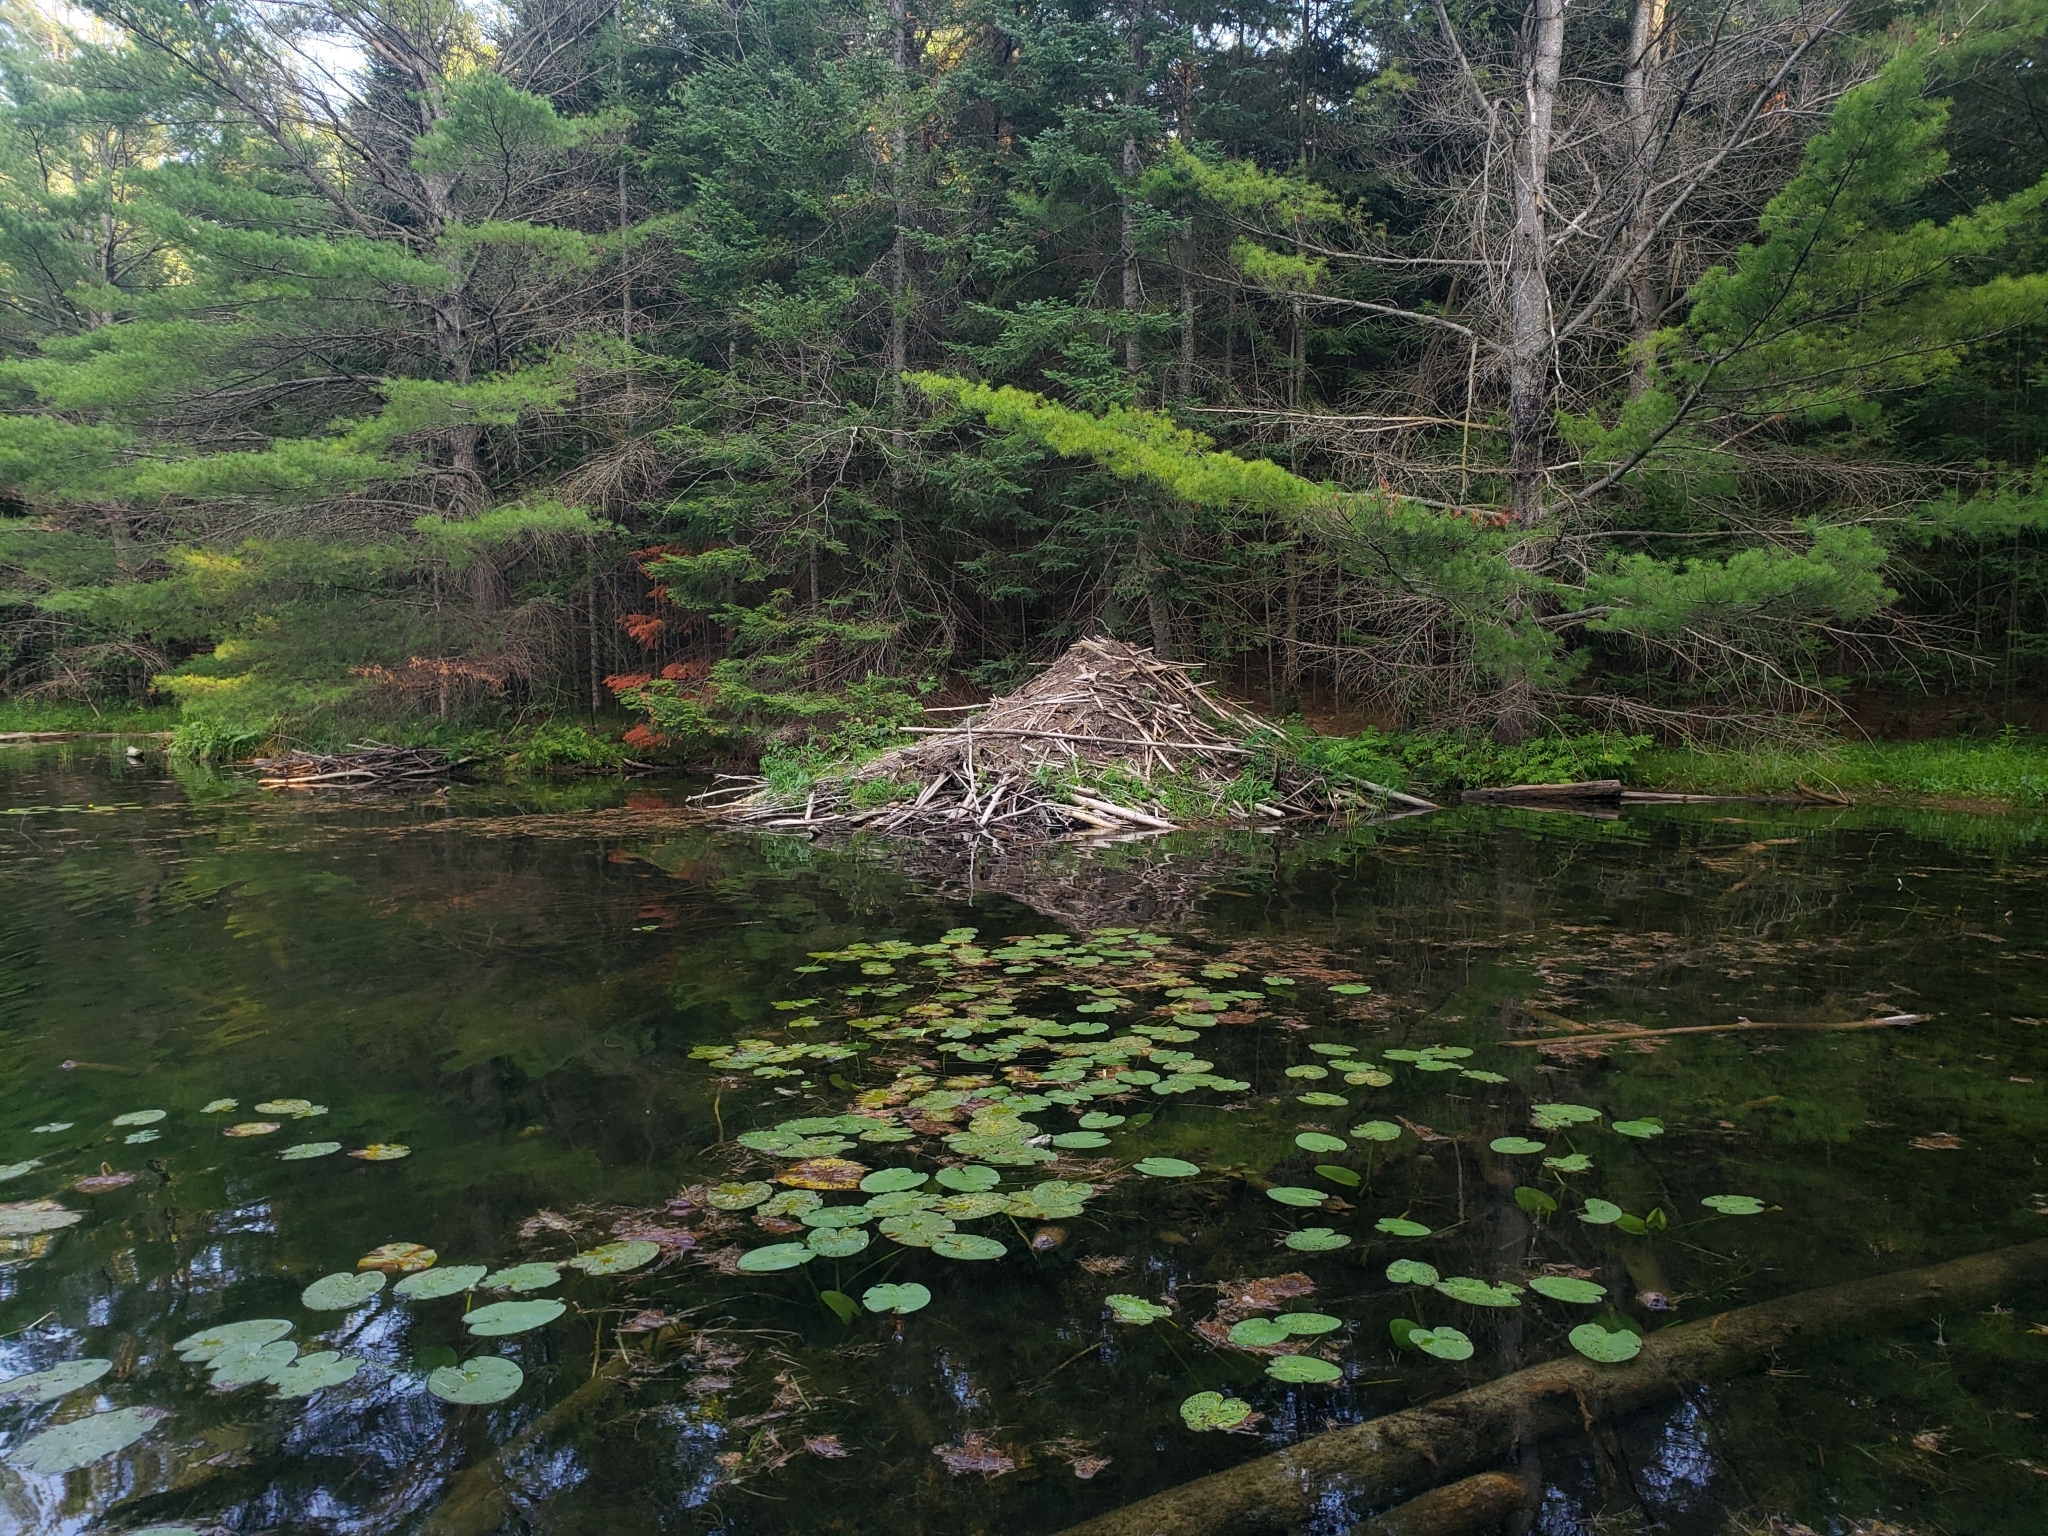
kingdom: Animalia
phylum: Chordata
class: Mammalia
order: Rodentia
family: Castoridae
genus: Castor
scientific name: Castor canadensis
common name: American beaver
